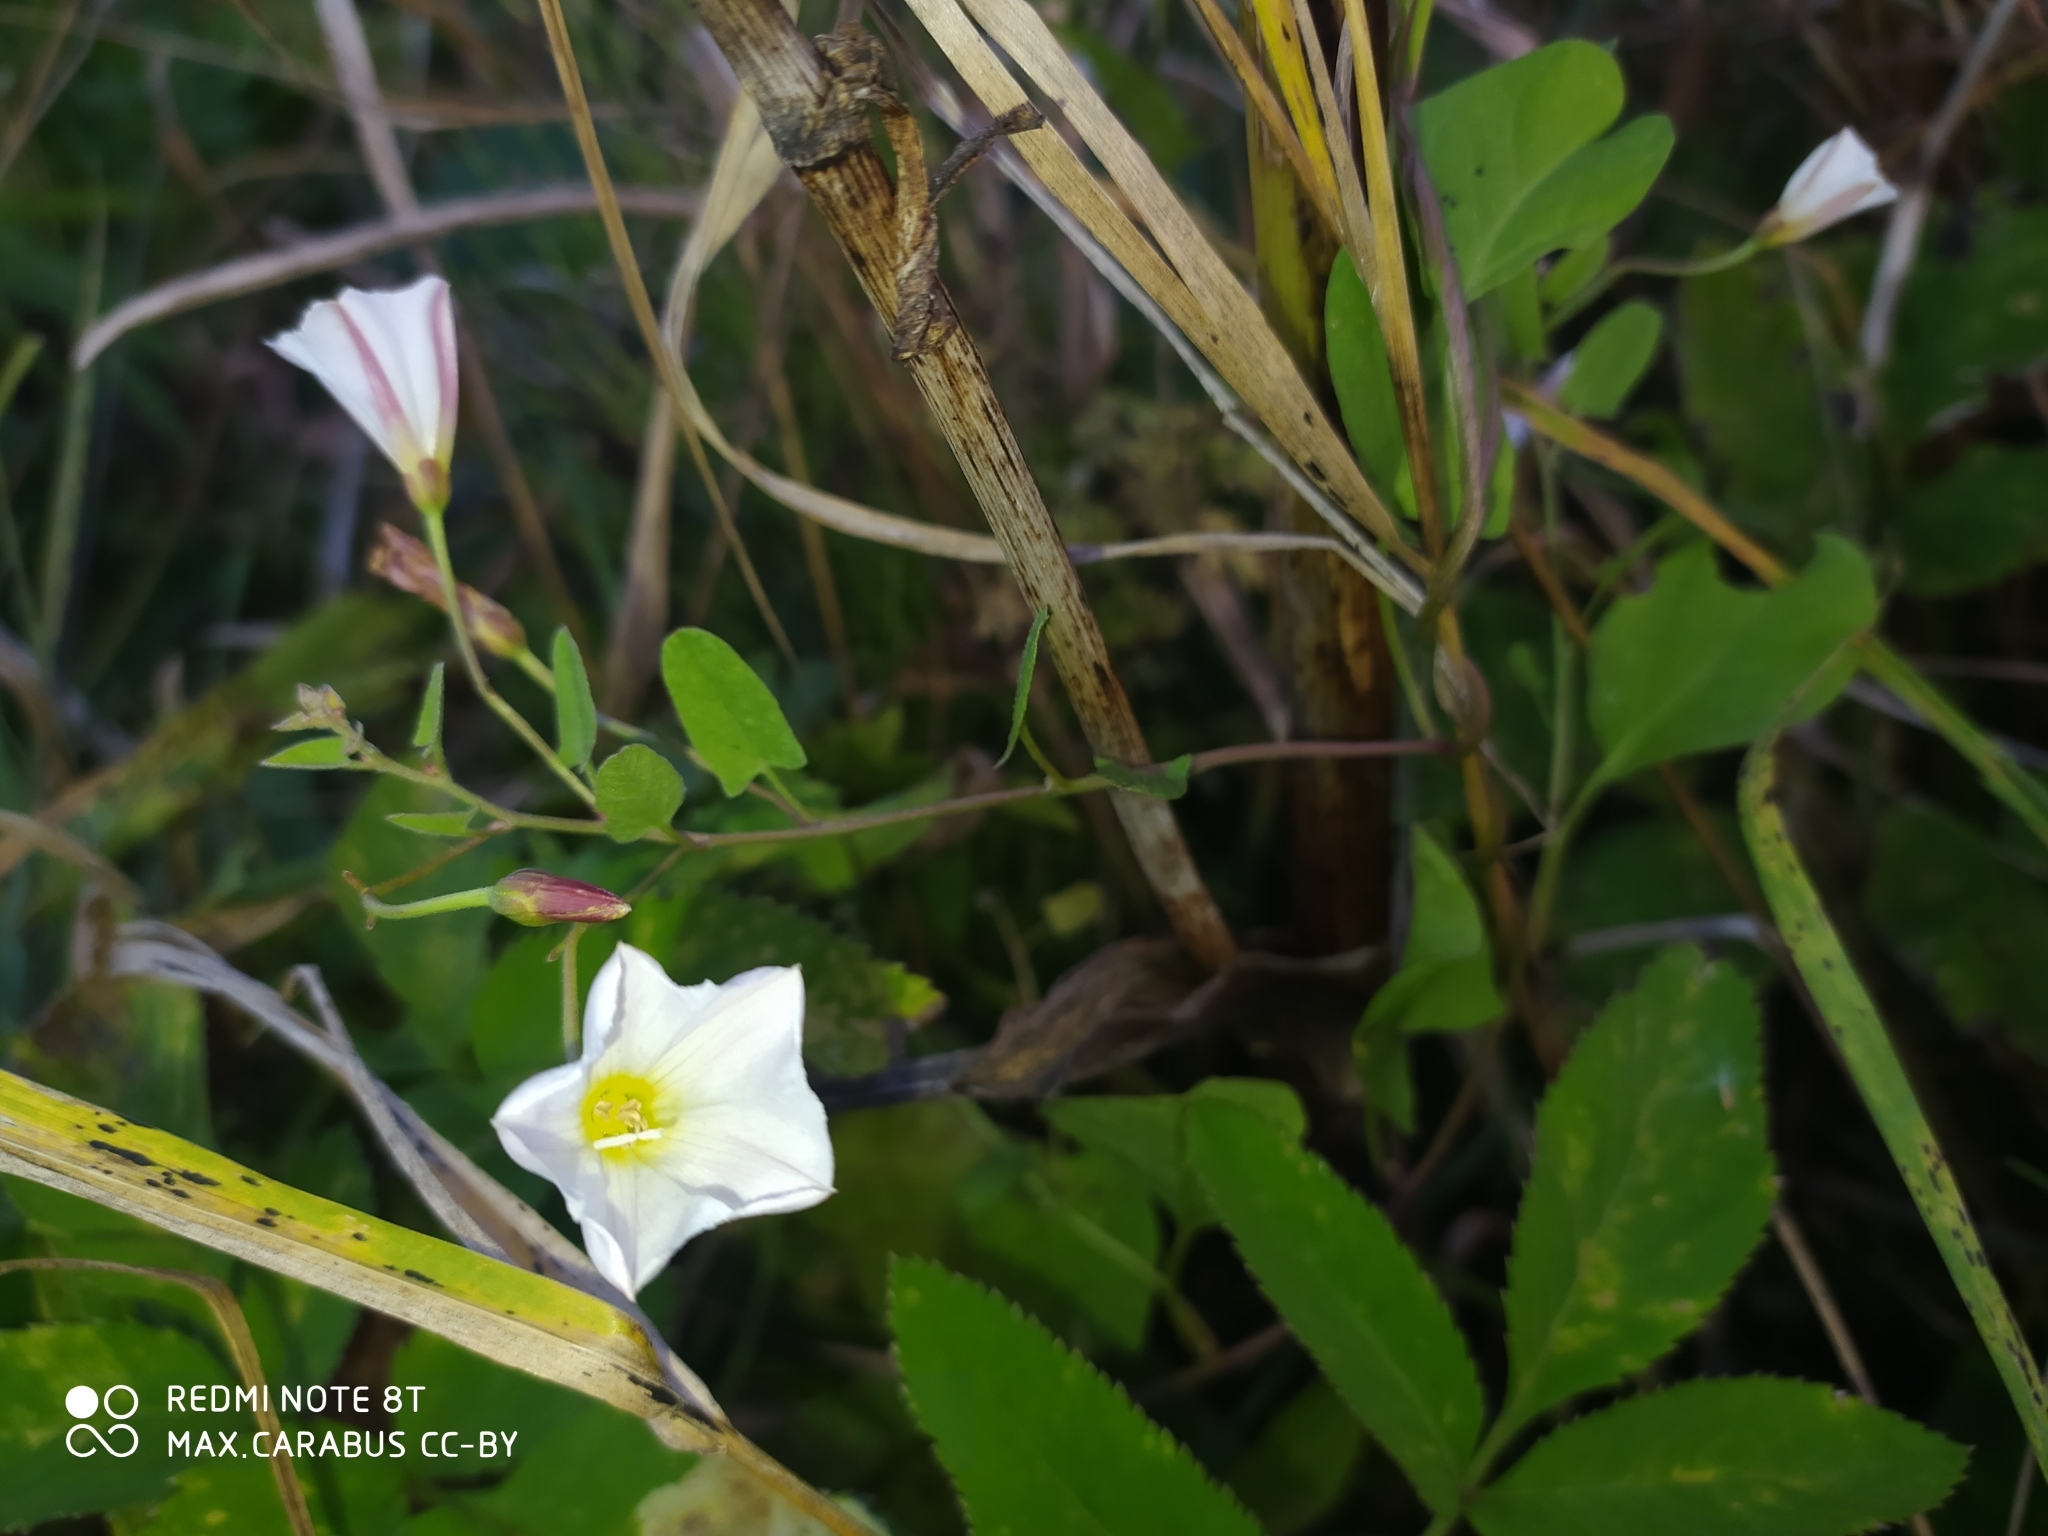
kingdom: Plantae
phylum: Tracheophyta
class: Magnoliopsida
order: Solanales
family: Convolvulaceae
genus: Convolvulus
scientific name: Convolvulus arvensis
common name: Field bindweed
